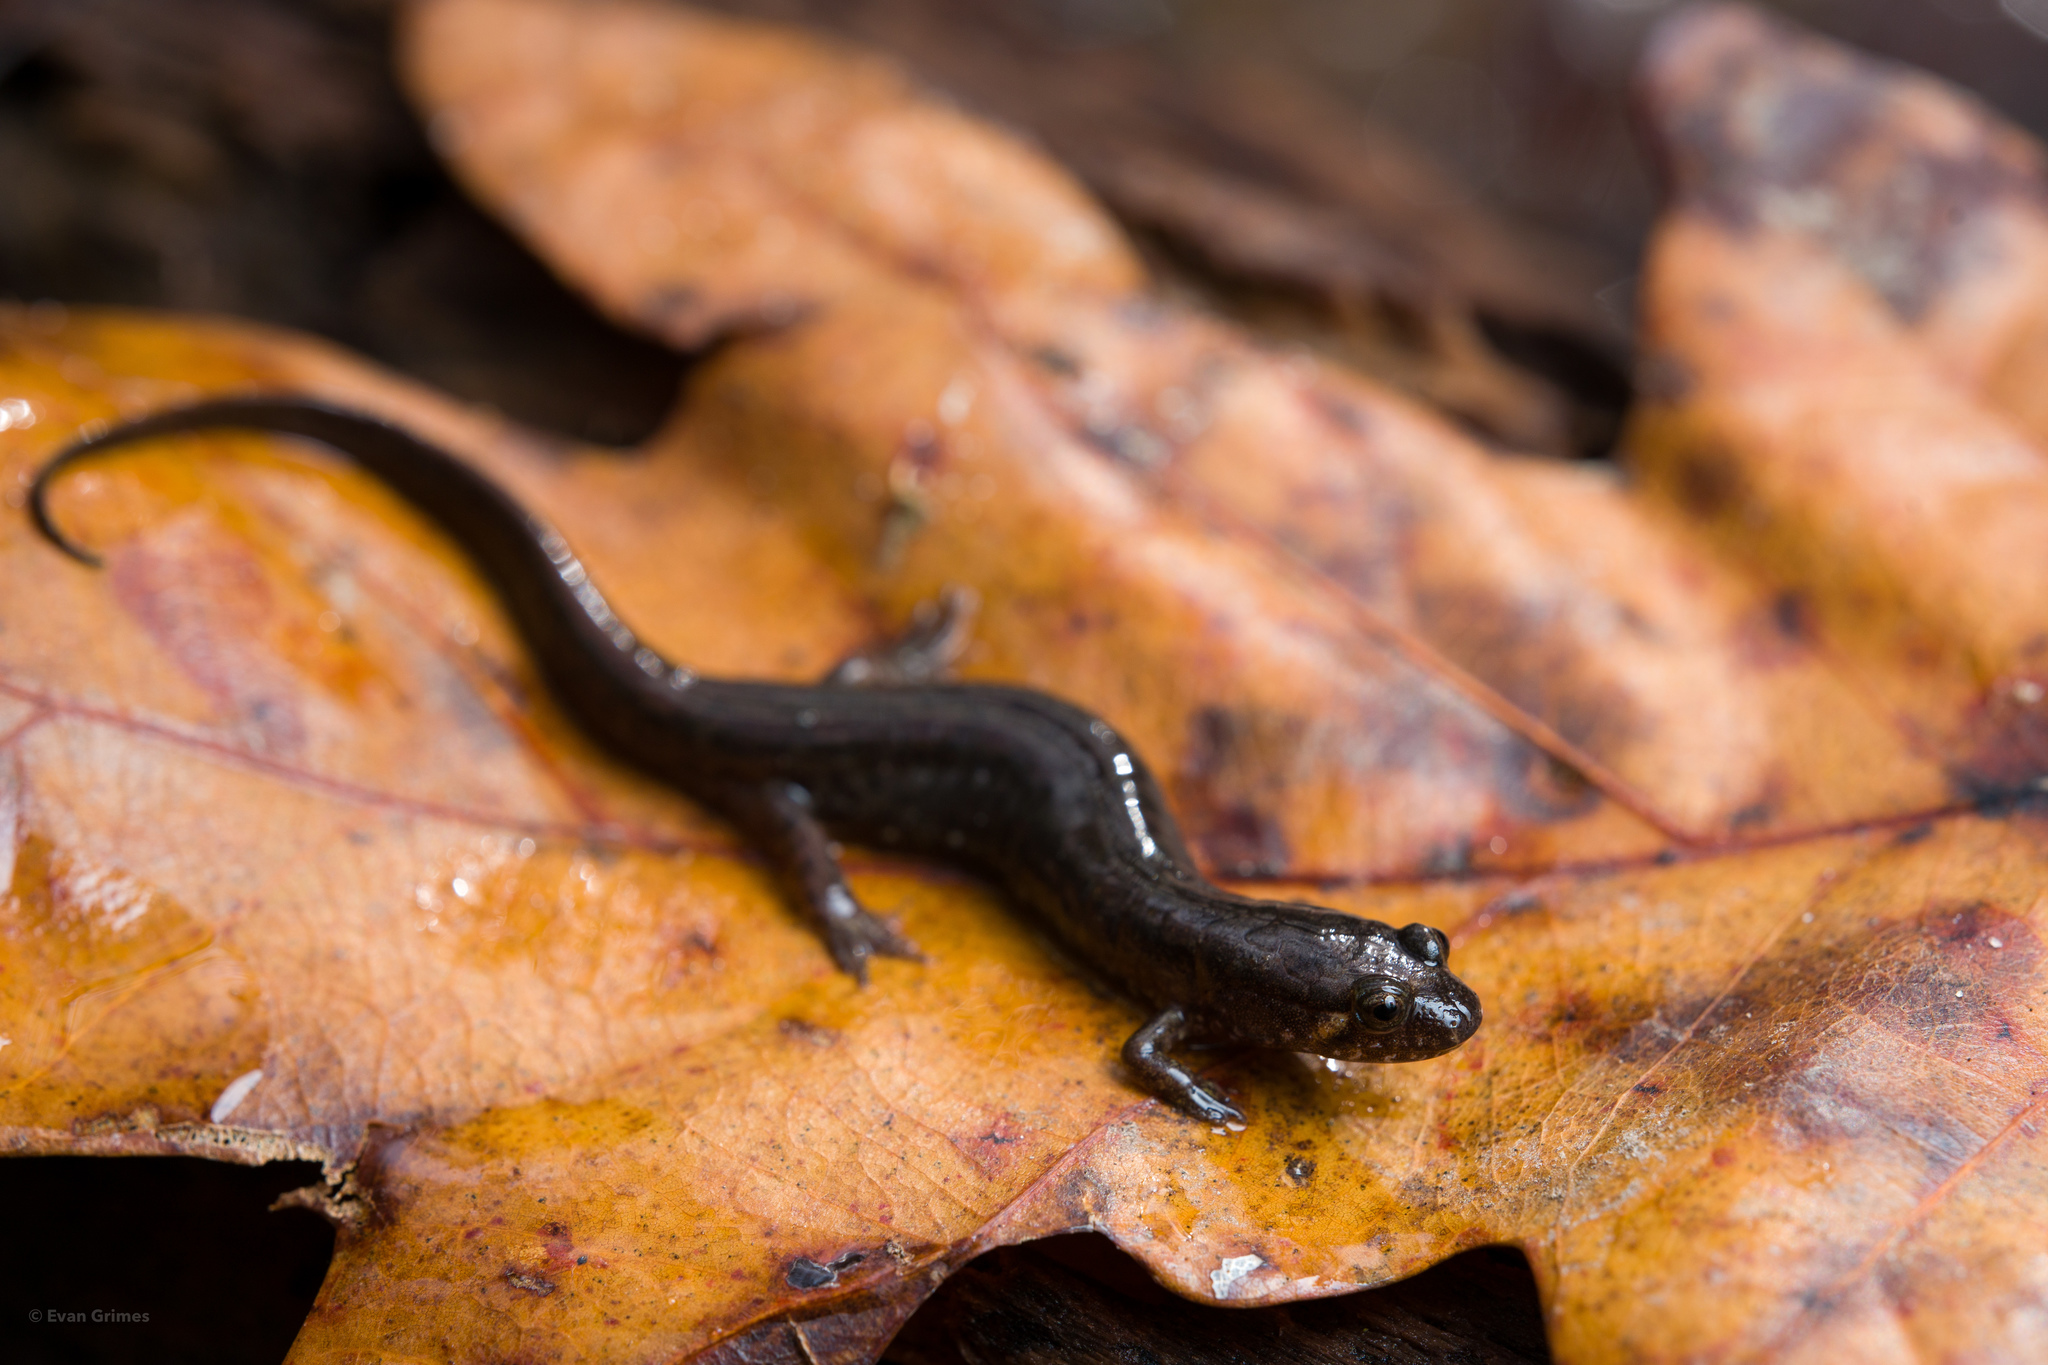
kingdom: Animalia
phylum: Chordata
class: Amphibia
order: Caudata
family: Plethodontidae
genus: Desmognathus
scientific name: Desmognathus conanti
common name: Spotted dusky salamander
